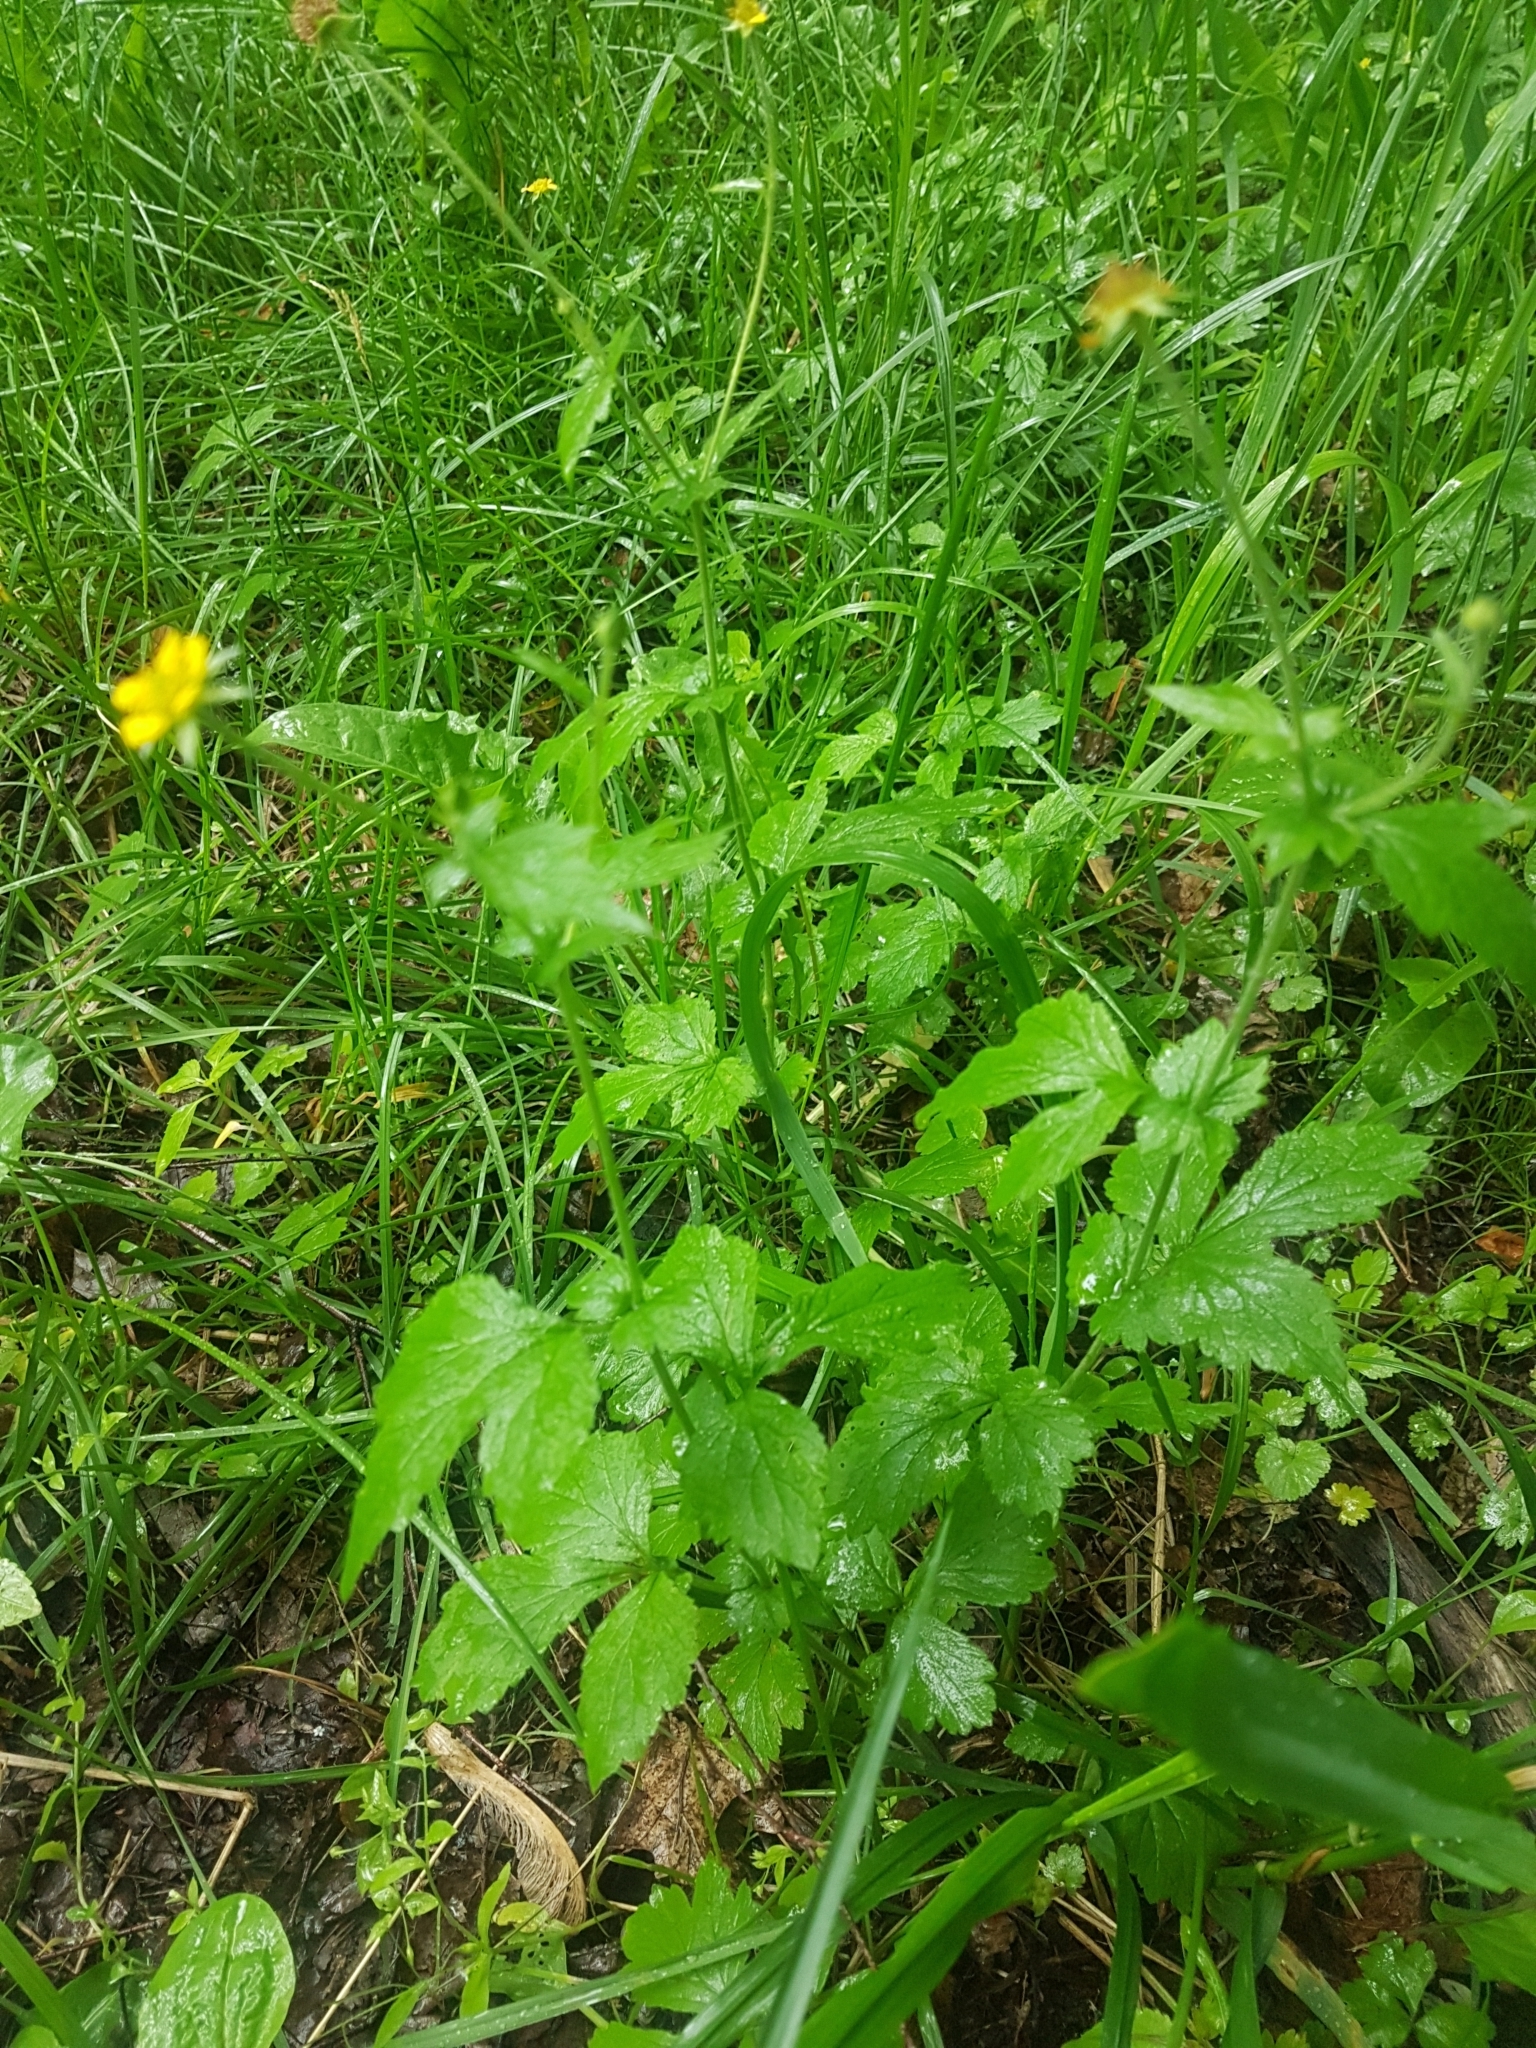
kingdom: Plantae
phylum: Tracheophyta
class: Magnoliopsida
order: Rosales
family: Rosaceae
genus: Geum
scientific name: Geum urbanum
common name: Wood avens
